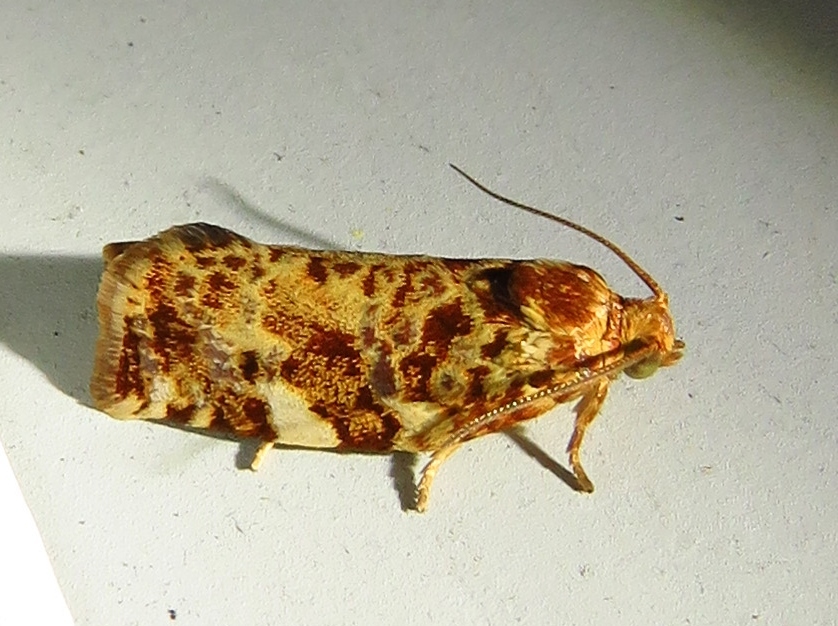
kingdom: Animalia
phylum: Arthropoda
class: Insecta
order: Lepidoptera
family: Tortricidae
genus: Archips
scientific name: Archips argyrospila
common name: Fruit-tree leafroller moth
